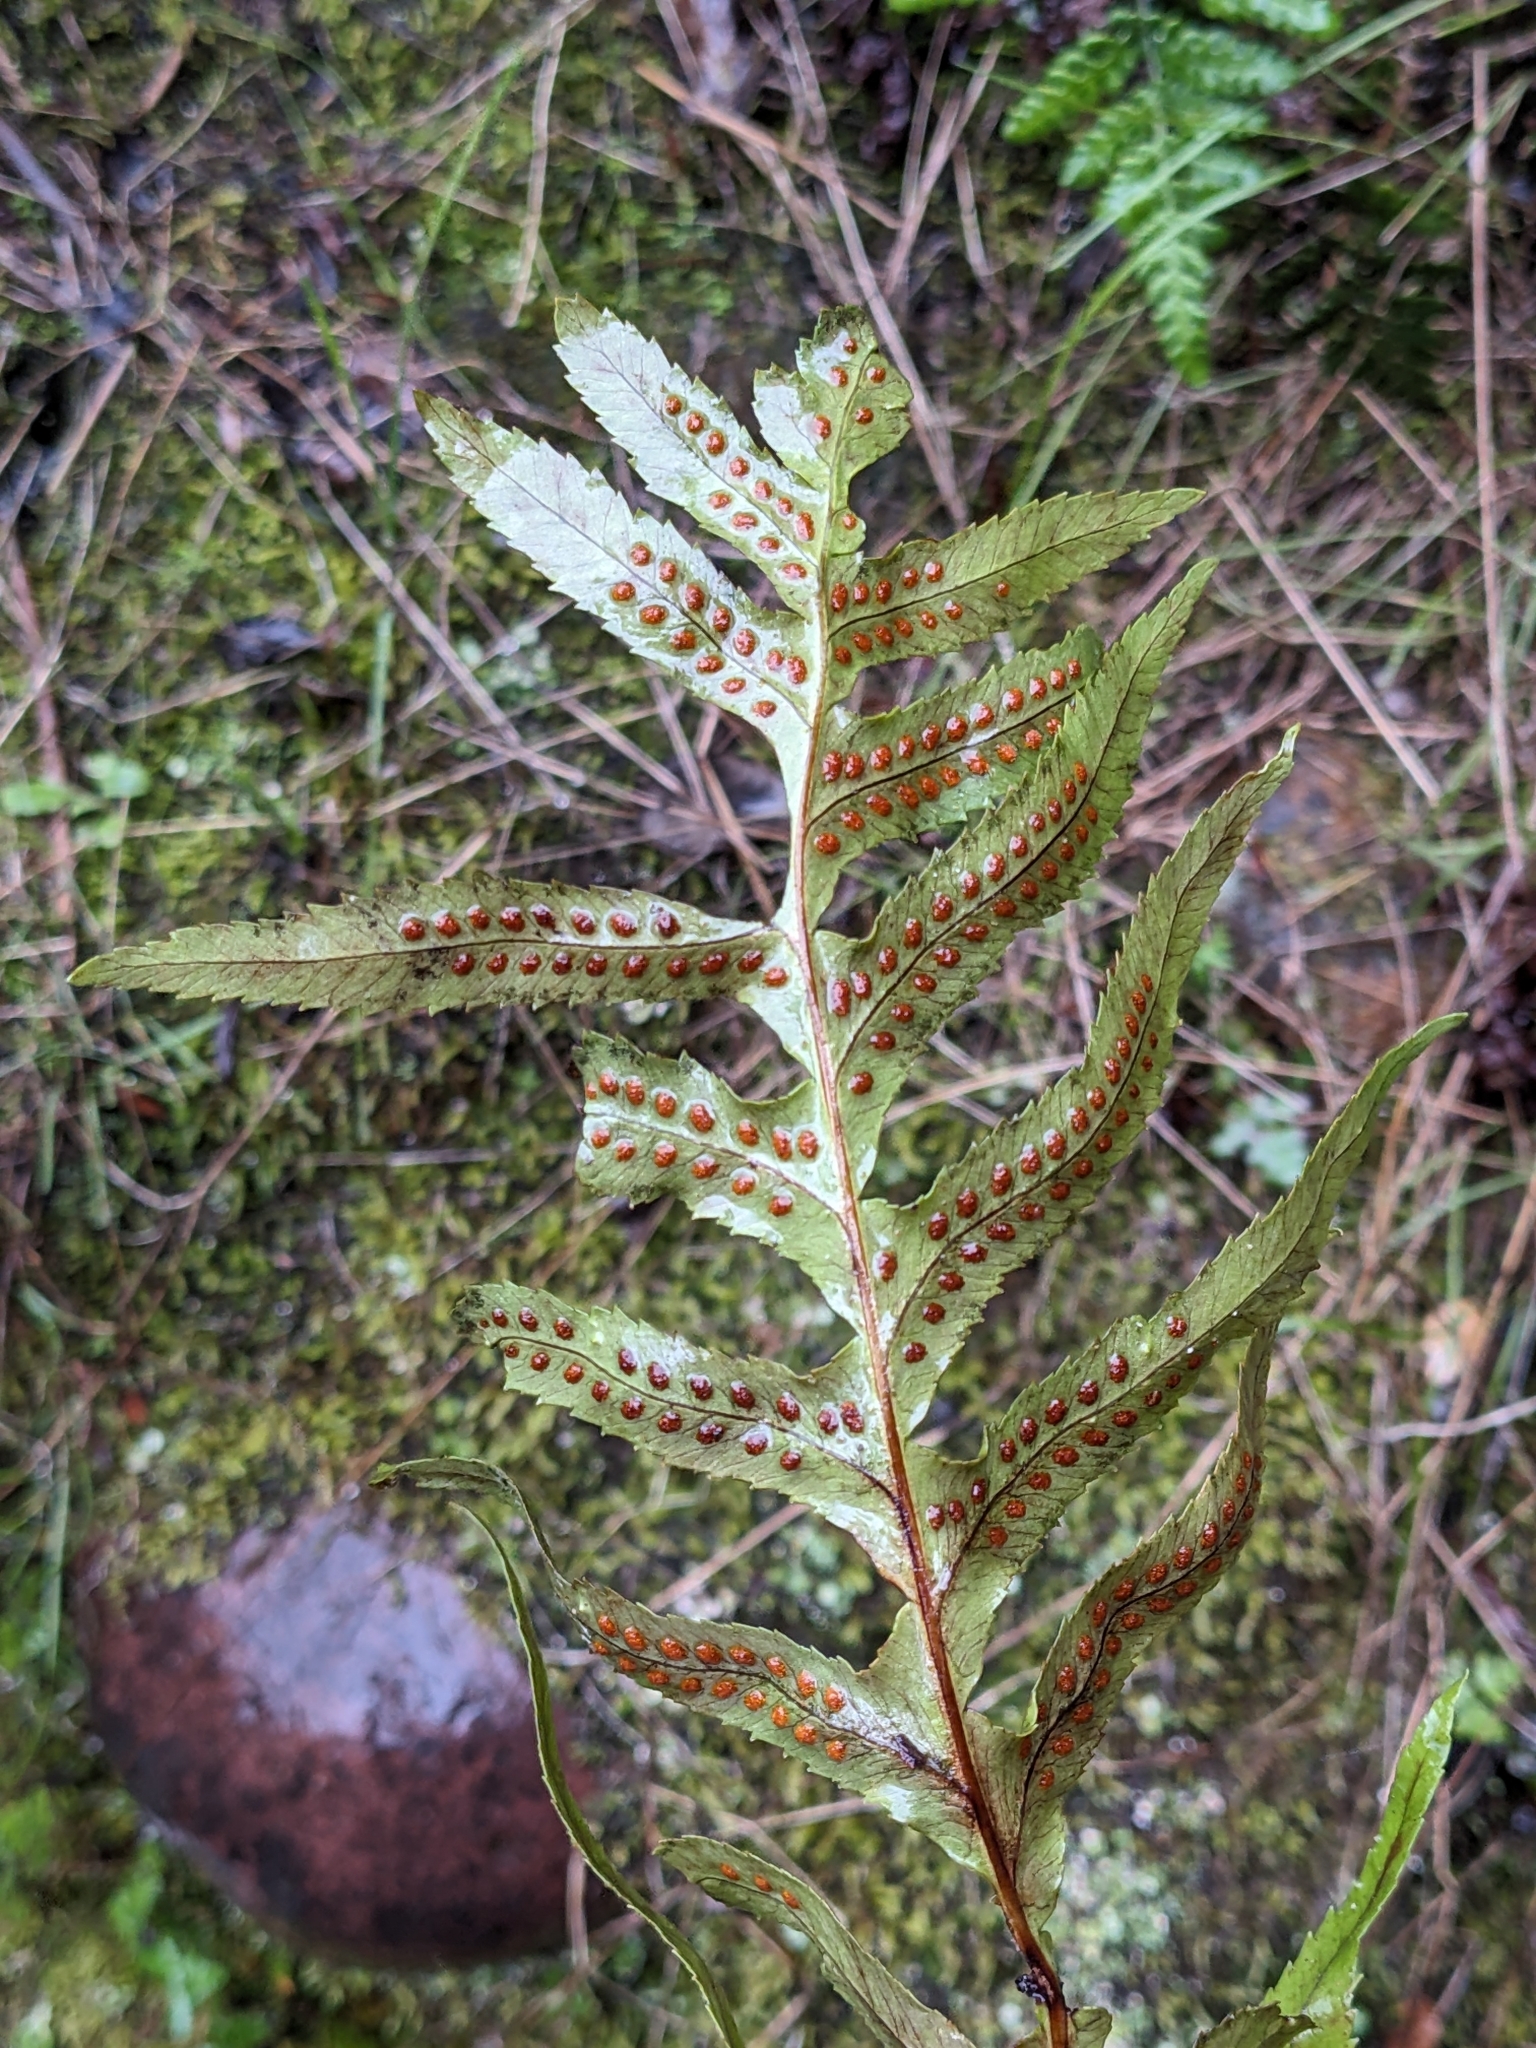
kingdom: Plantae
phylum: Tracheophyta
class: Polypodiopsida
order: Polypodiales
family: Polypodiaceae
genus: Polypodium
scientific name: Polypodium californicum
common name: California polypody
